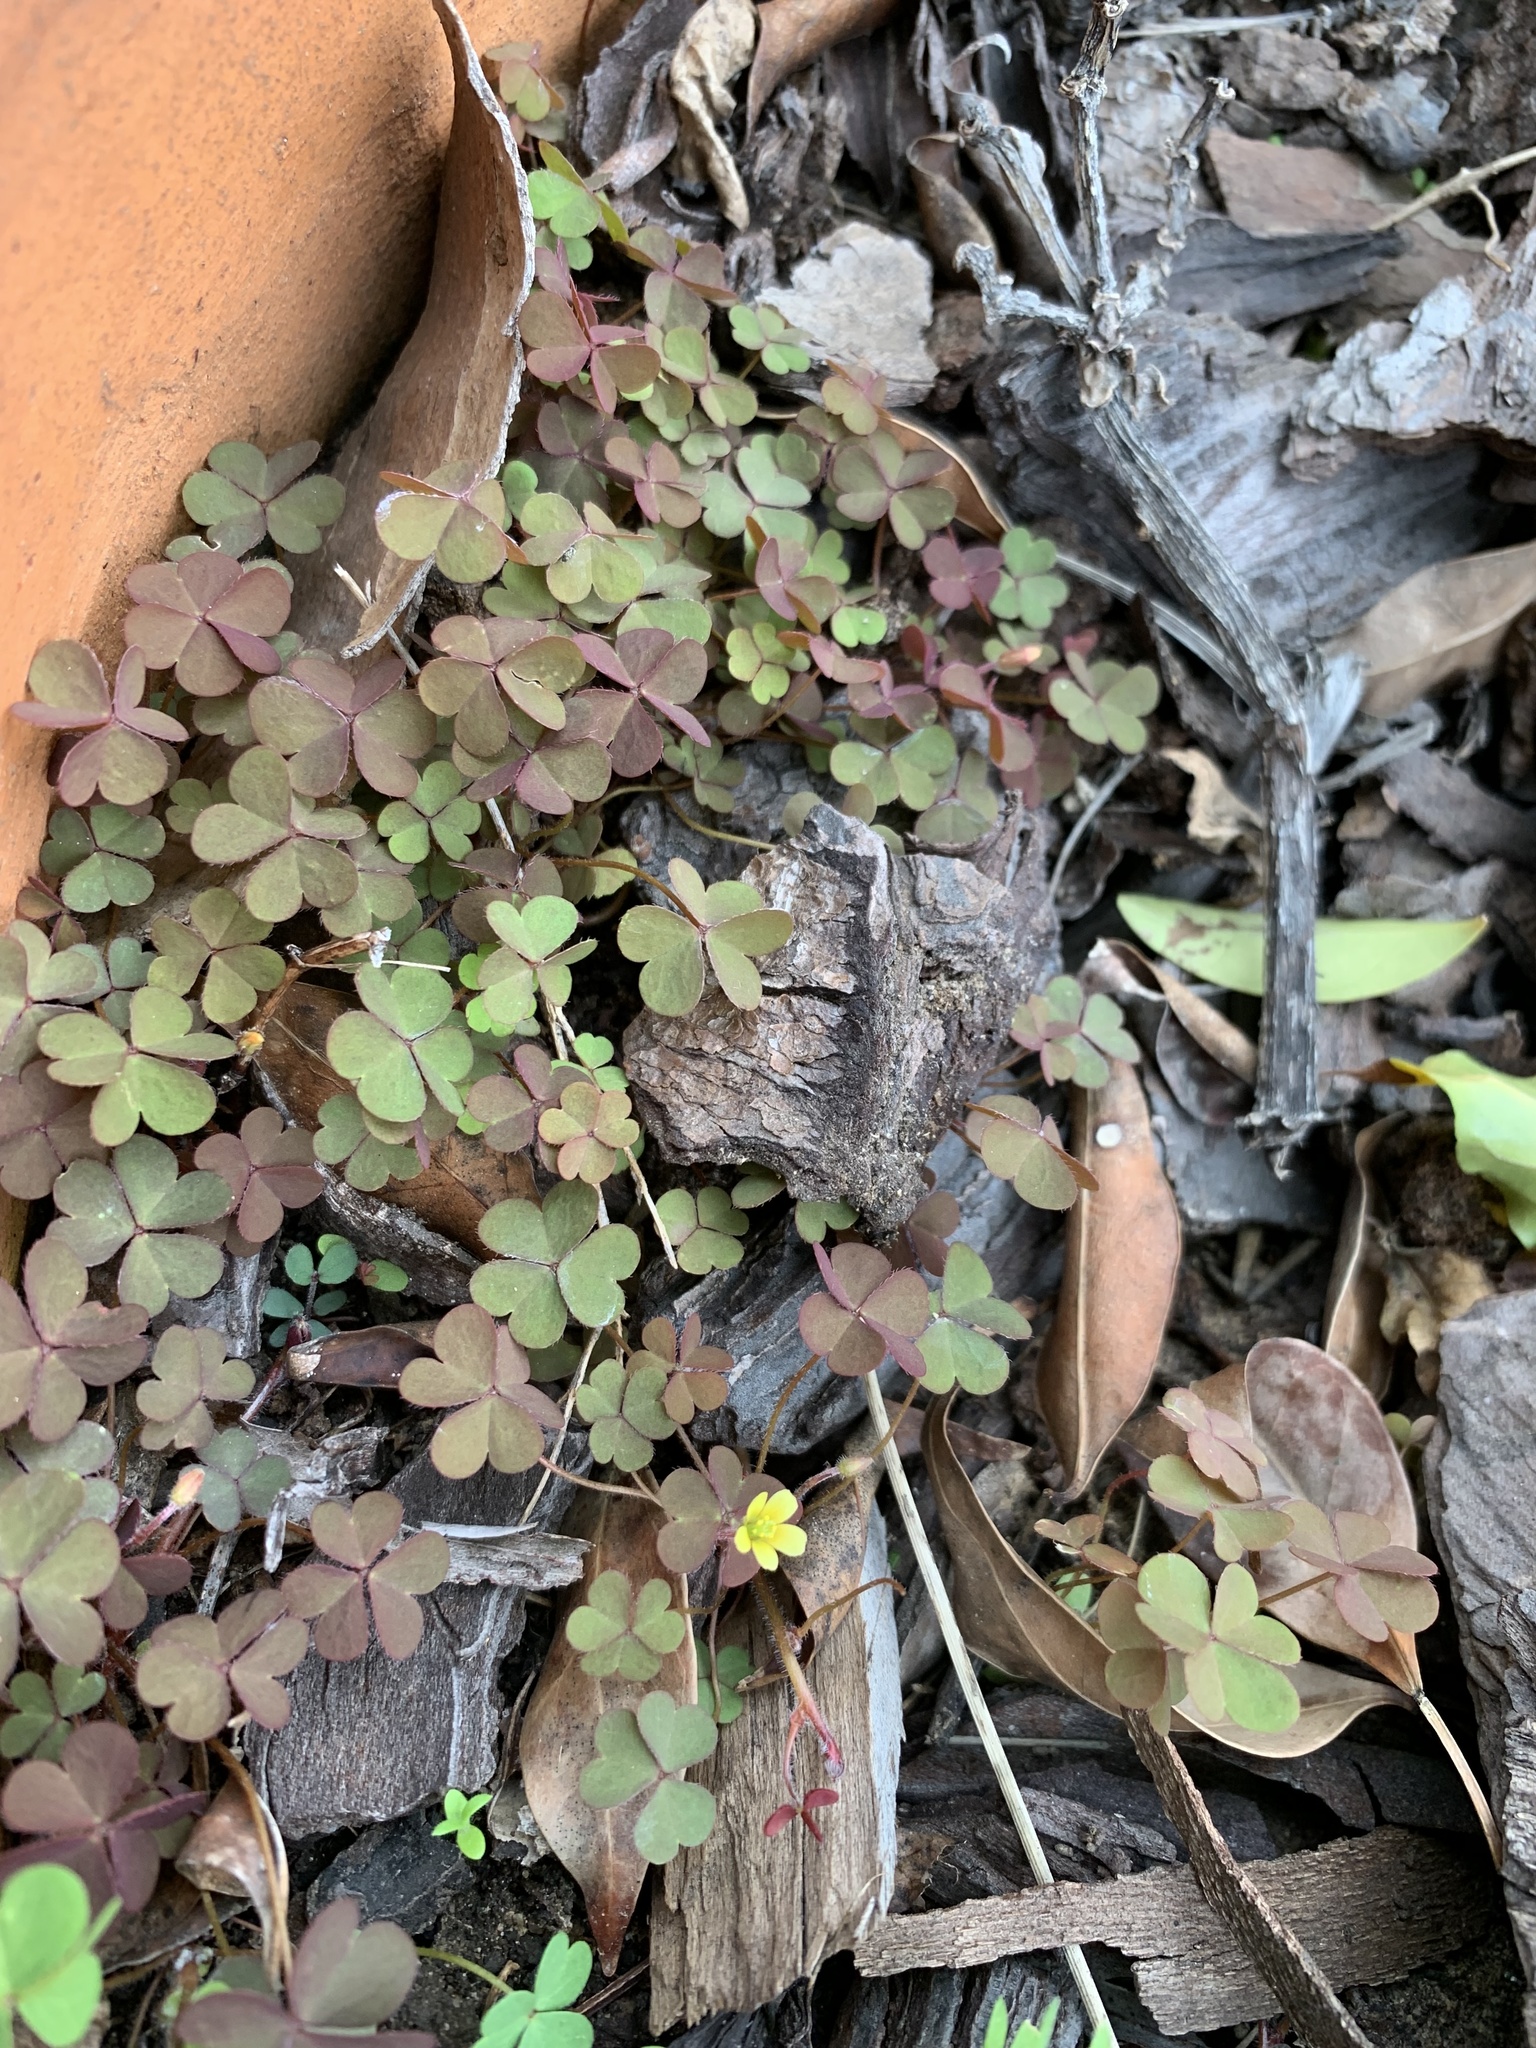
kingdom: Plantae
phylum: Tracheophyta
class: Magnoliopsida
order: Oxalidales
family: Oxalidaceae
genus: Oxalis
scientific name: Oxalis corniculata
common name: Procumbent yellow-sorrel
